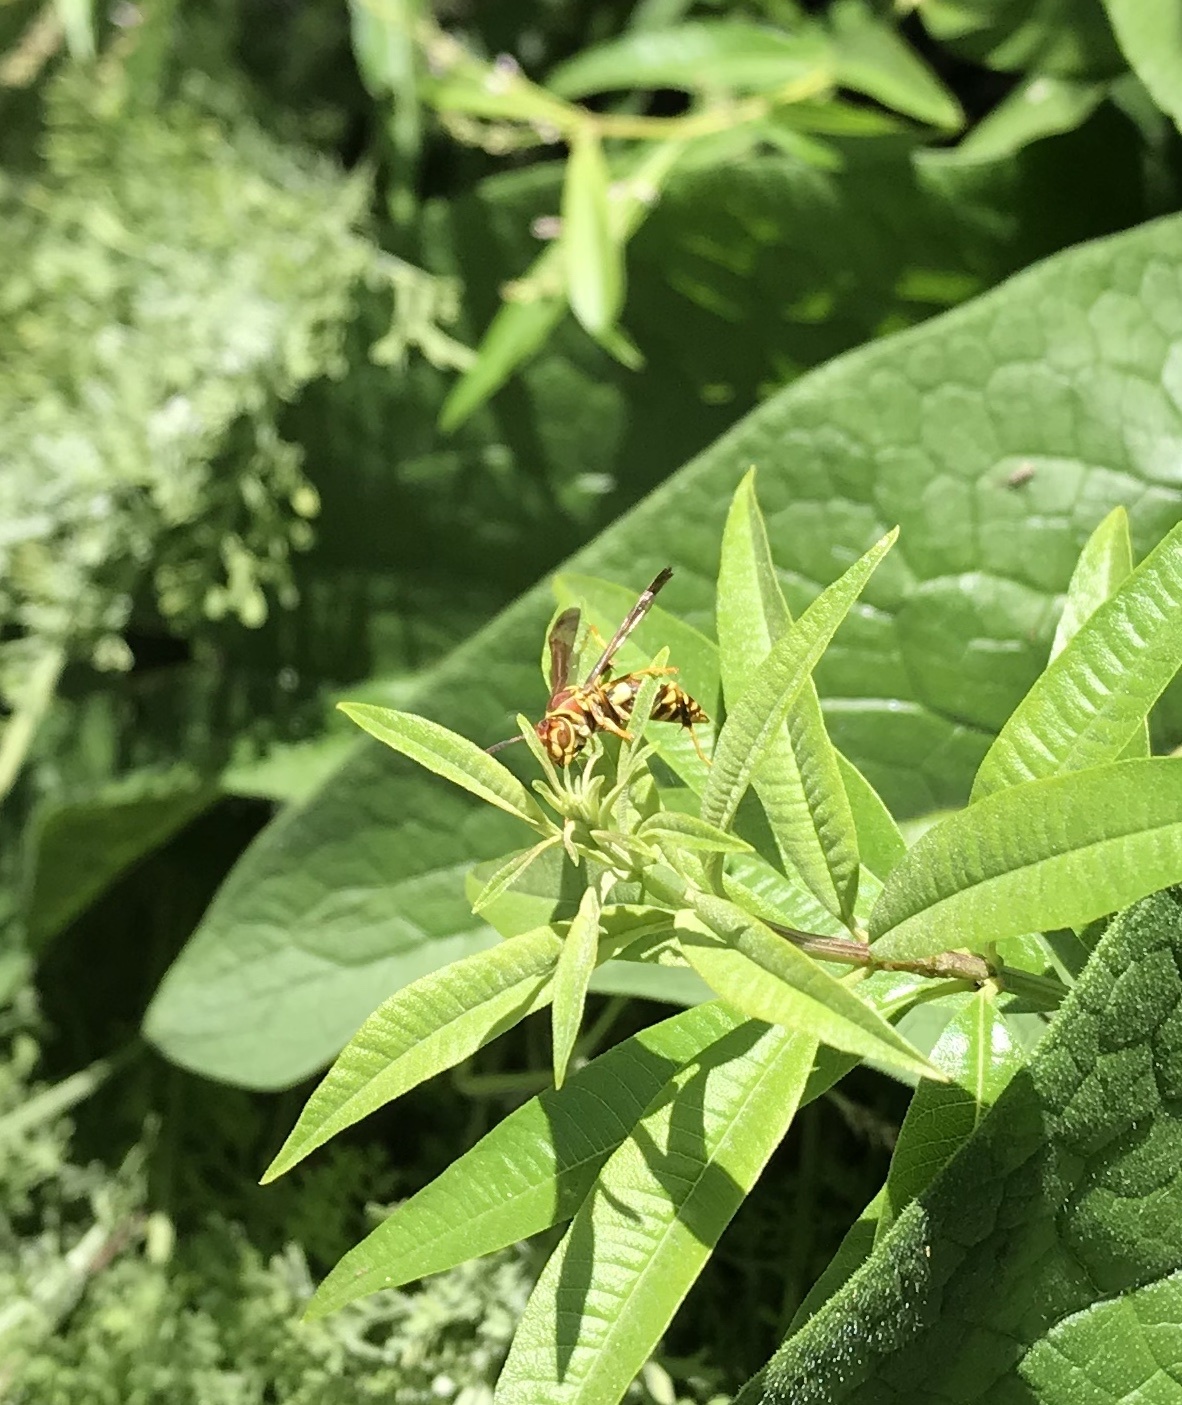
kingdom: Animalia
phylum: Arthropoda
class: Insecta
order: Hymenoptera
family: Eumenidae
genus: Polistes
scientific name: Polistes exclamans
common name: Paper wasp
